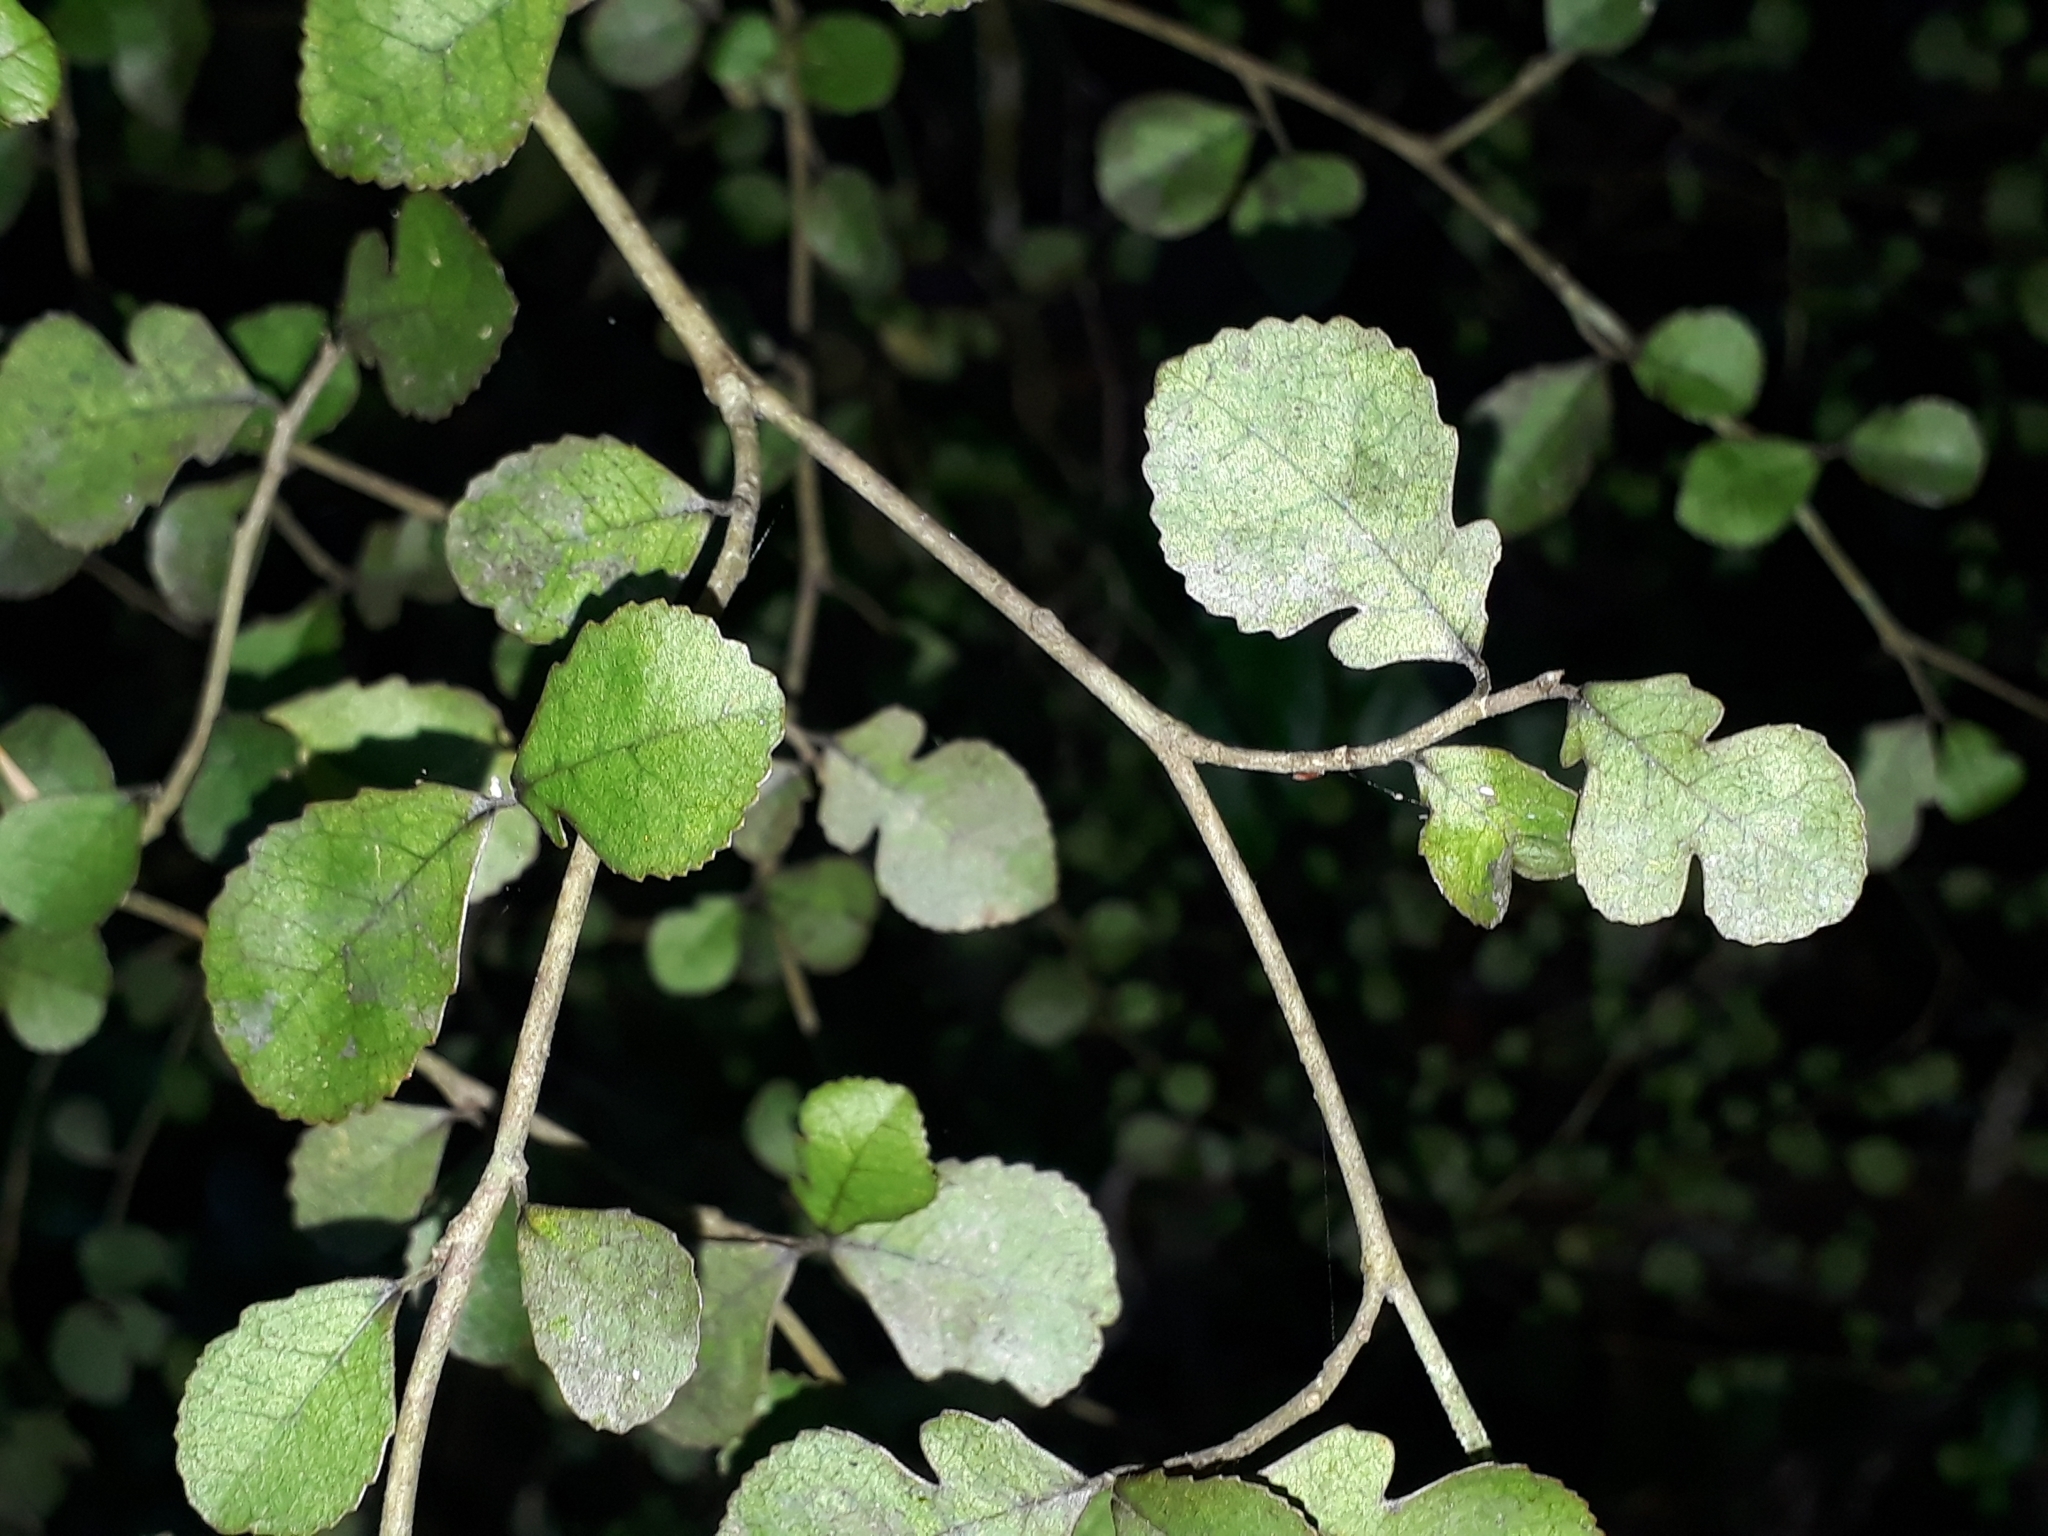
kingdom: Plantae
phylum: Tracheophyta
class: Magnoliopsida
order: Rosales
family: Moraceae
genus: Paratrophis
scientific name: Paratrophis microphylla
